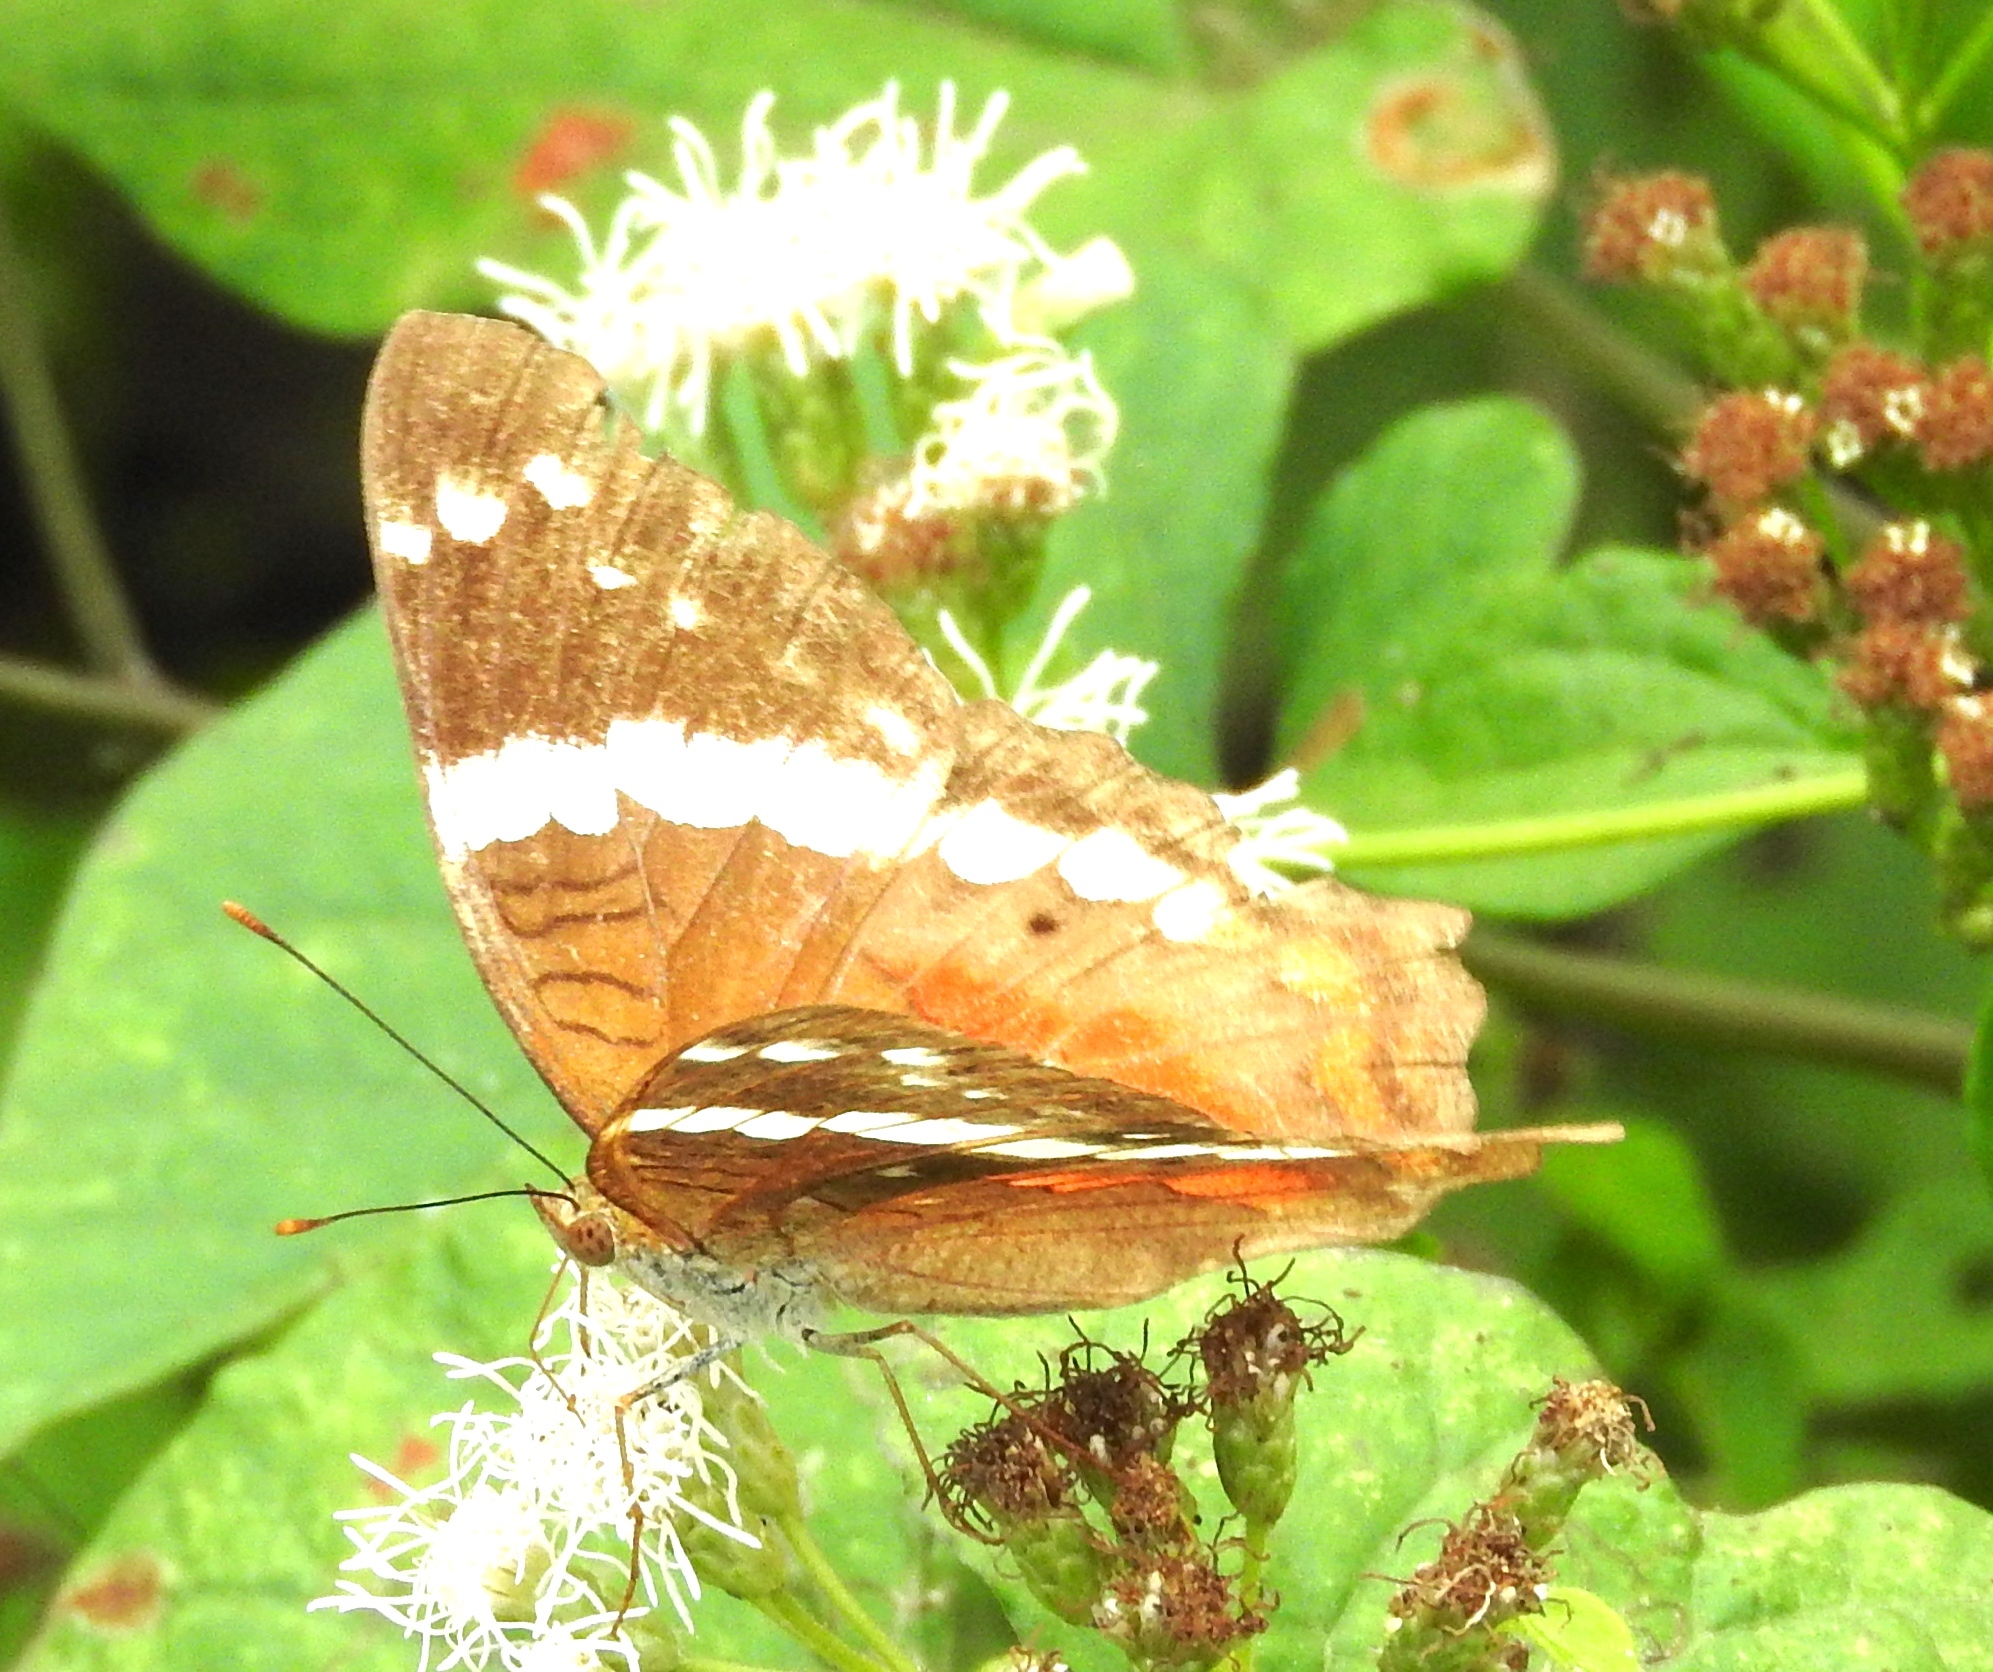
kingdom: Animalia
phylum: Arthropoda
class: Insecta
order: Lepidoptera
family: Nymphalidae
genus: Anartia
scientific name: Anartia fatima
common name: Banded peacock
